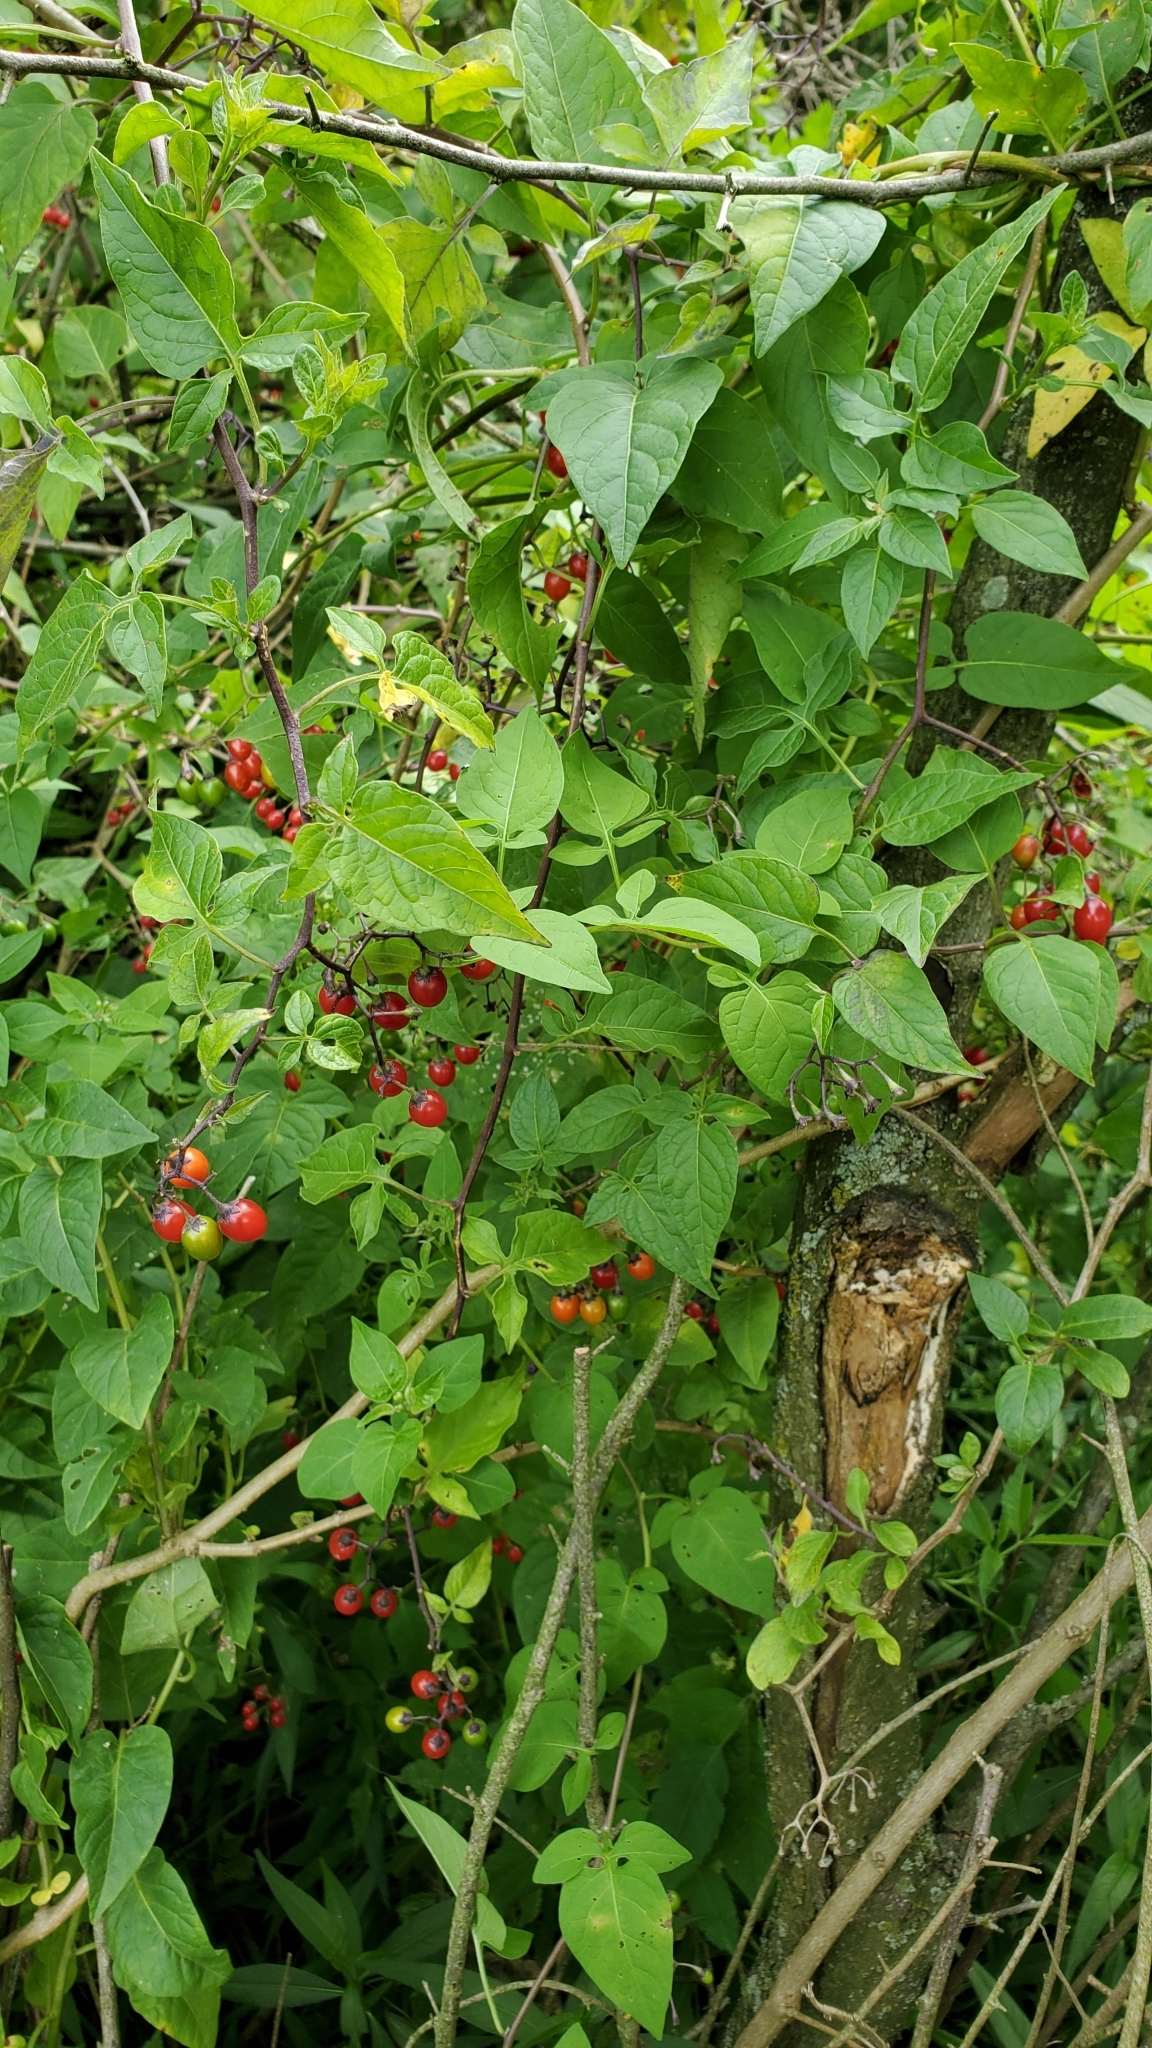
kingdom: Plantae
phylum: Tracheophyta
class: Magnoliopsida
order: Solanales
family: Solanaceae
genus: Solanum
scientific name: Solanum dulcamara
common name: Climbing nightshade
